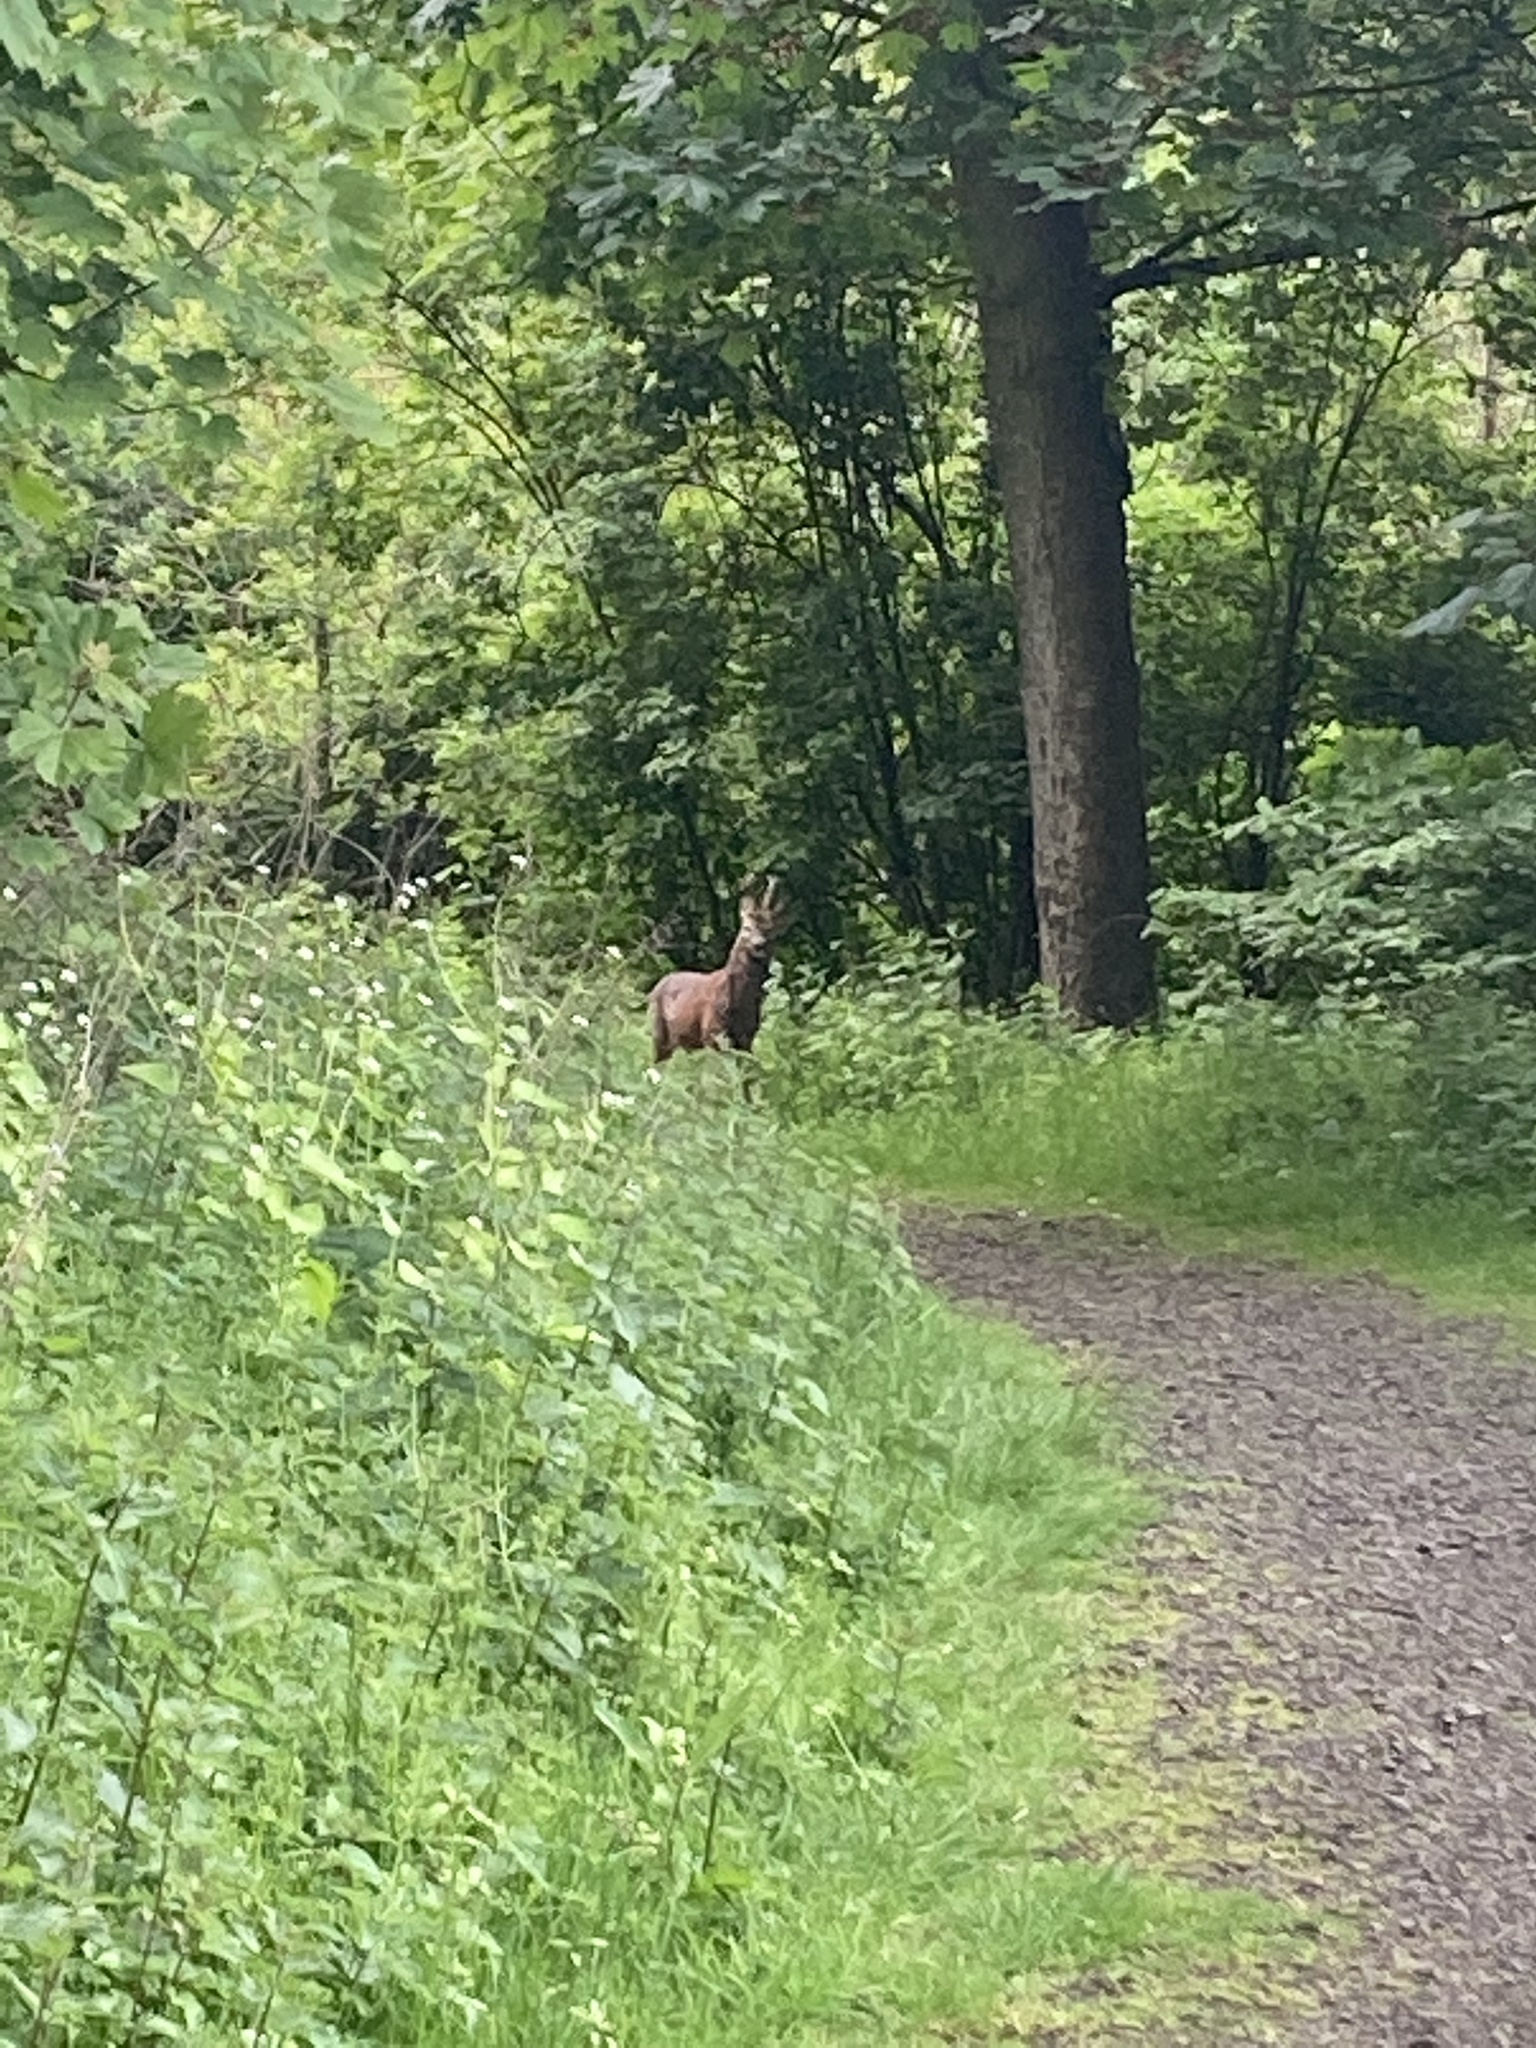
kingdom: Animalia
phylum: Chordata
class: Mammalia
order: Artiodactyla
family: Cervidae
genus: Capreolus
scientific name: Capreolus capreolus
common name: Western roe deer
